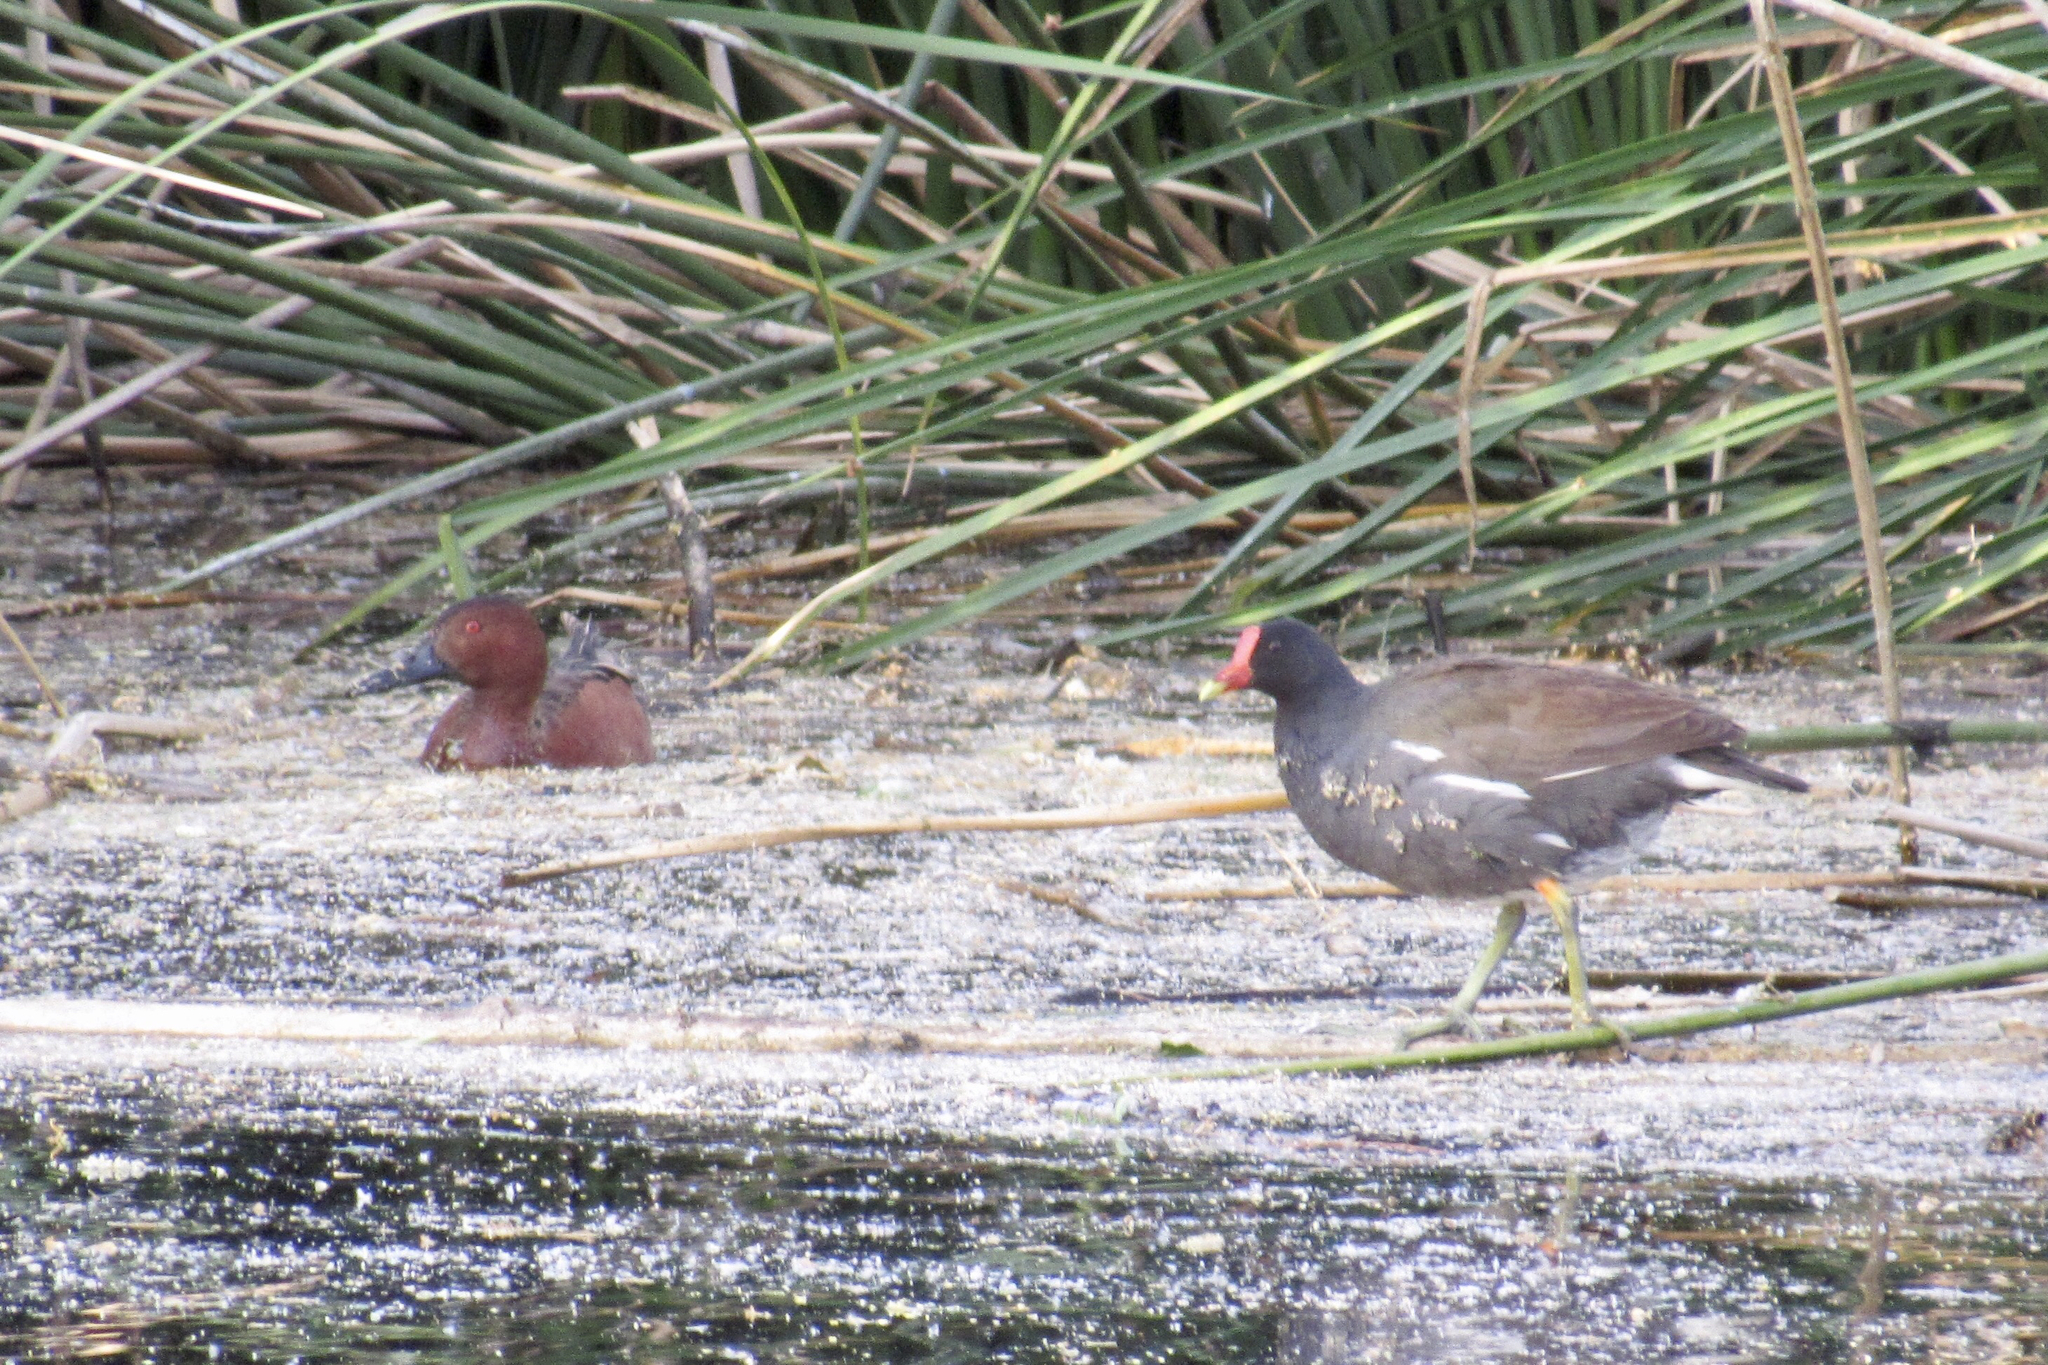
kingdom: Animalia
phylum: Chordata
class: Aves
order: Gruiformes
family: Rallidae
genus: Gallinula
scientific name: Gallinula chloropus
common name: Common moorhen
